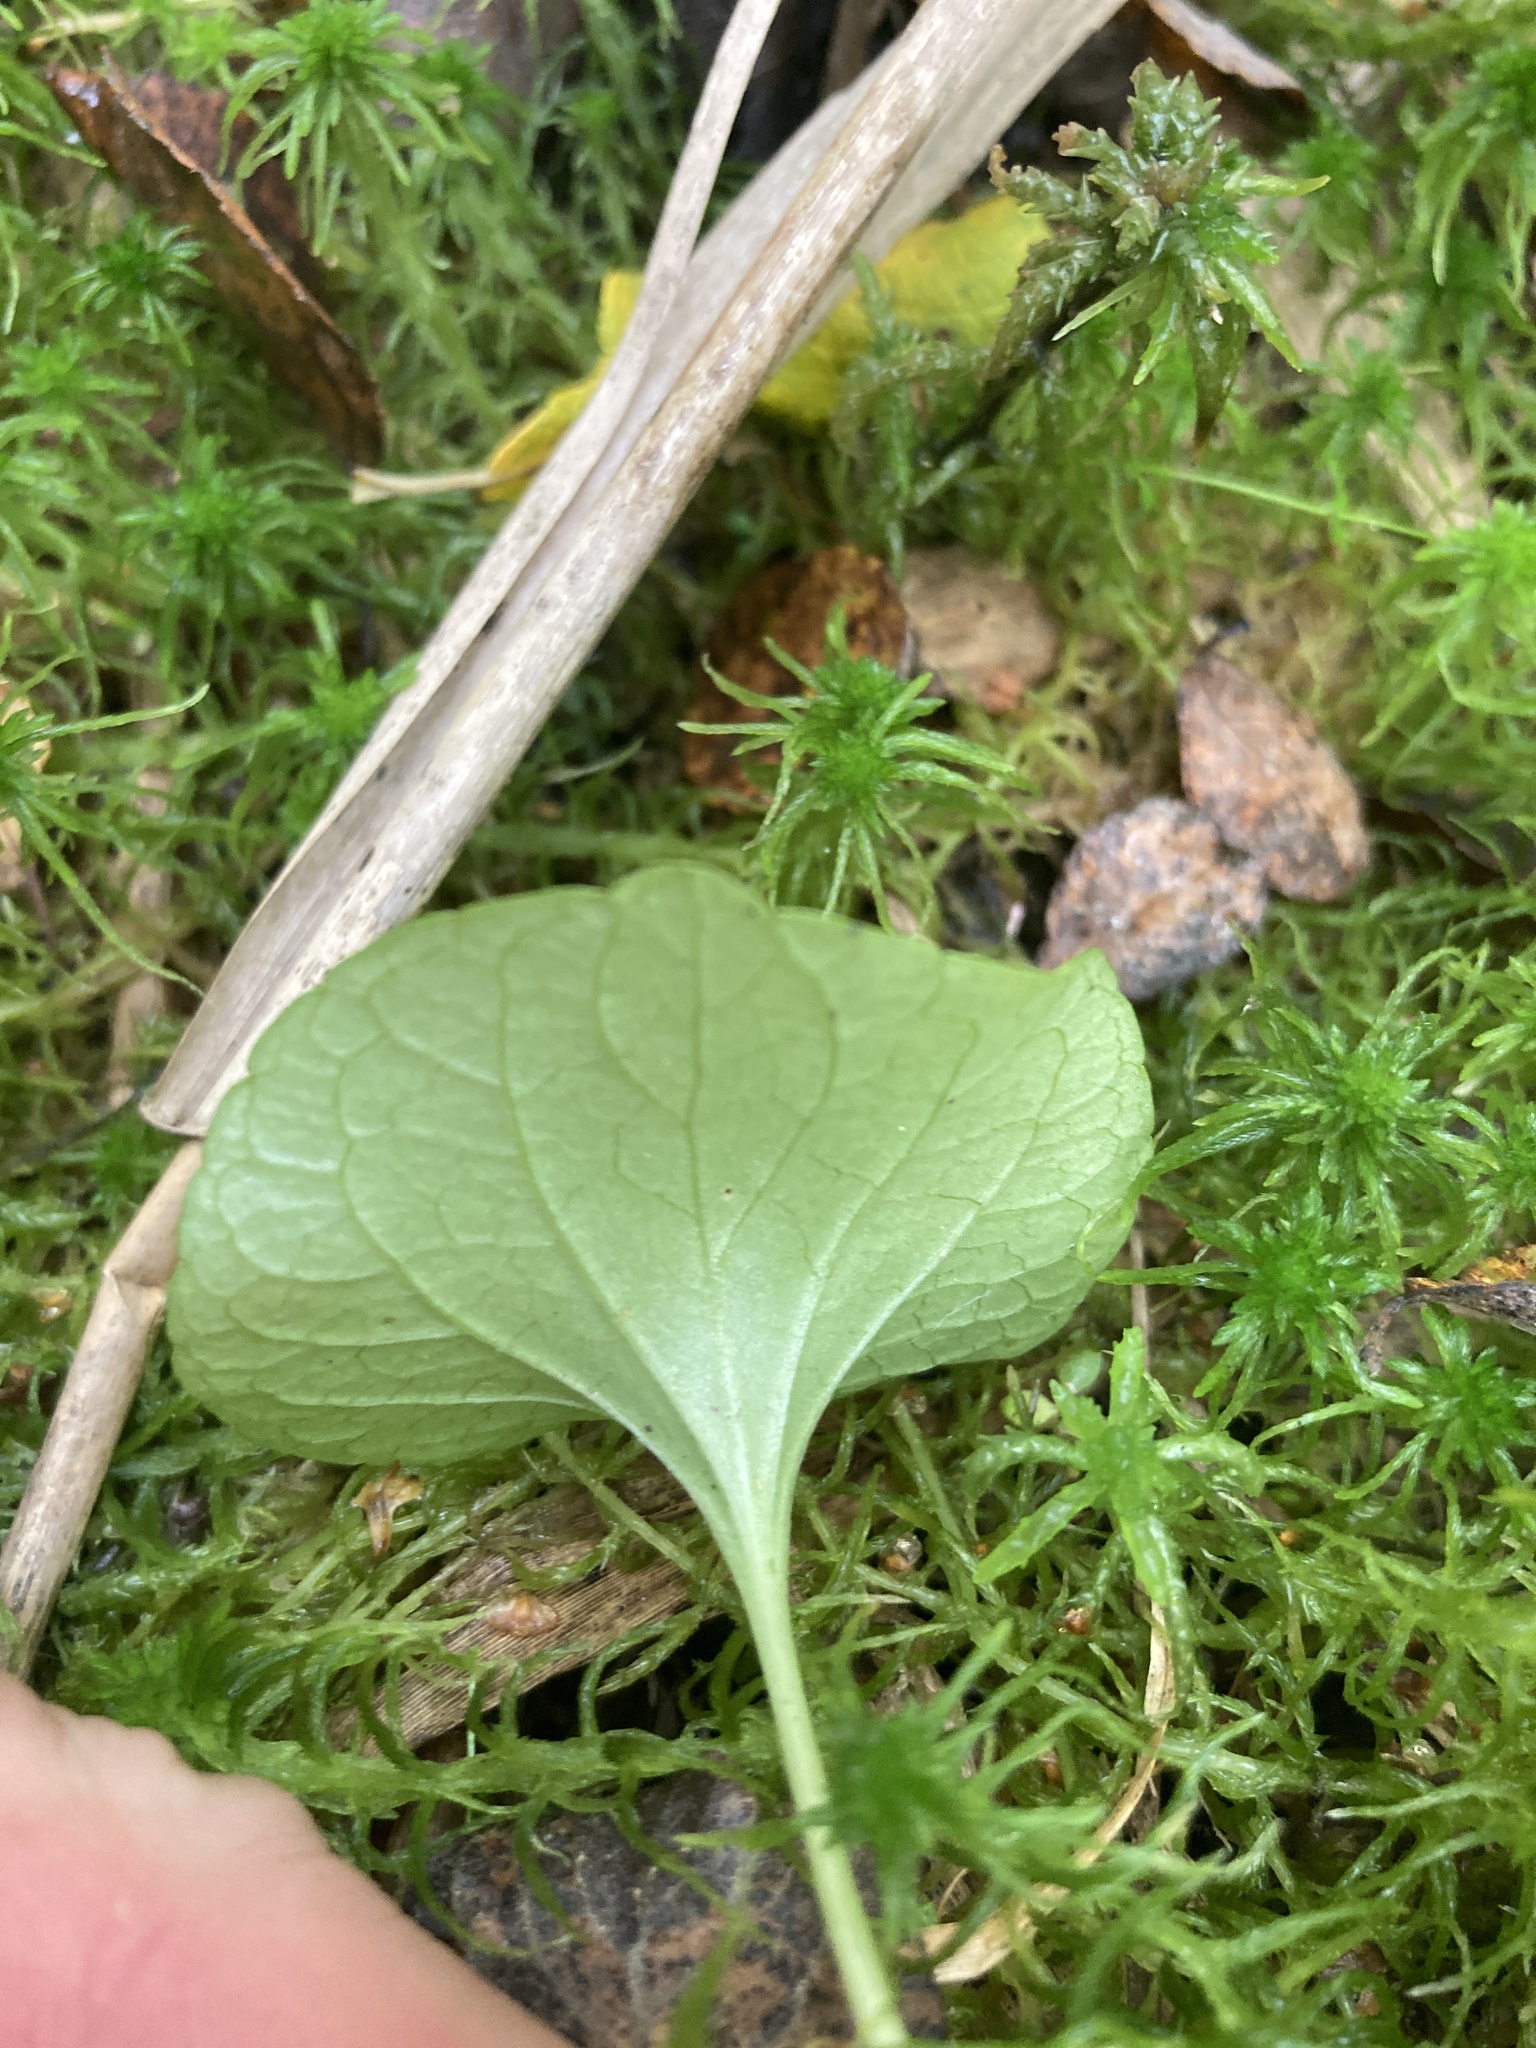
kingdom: Plantae
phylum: Tracheophyta
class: Magnoliopsida
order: Malpighiales
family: Violaceae
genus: Viola
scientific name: Viola palustris
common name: Marsh violet
